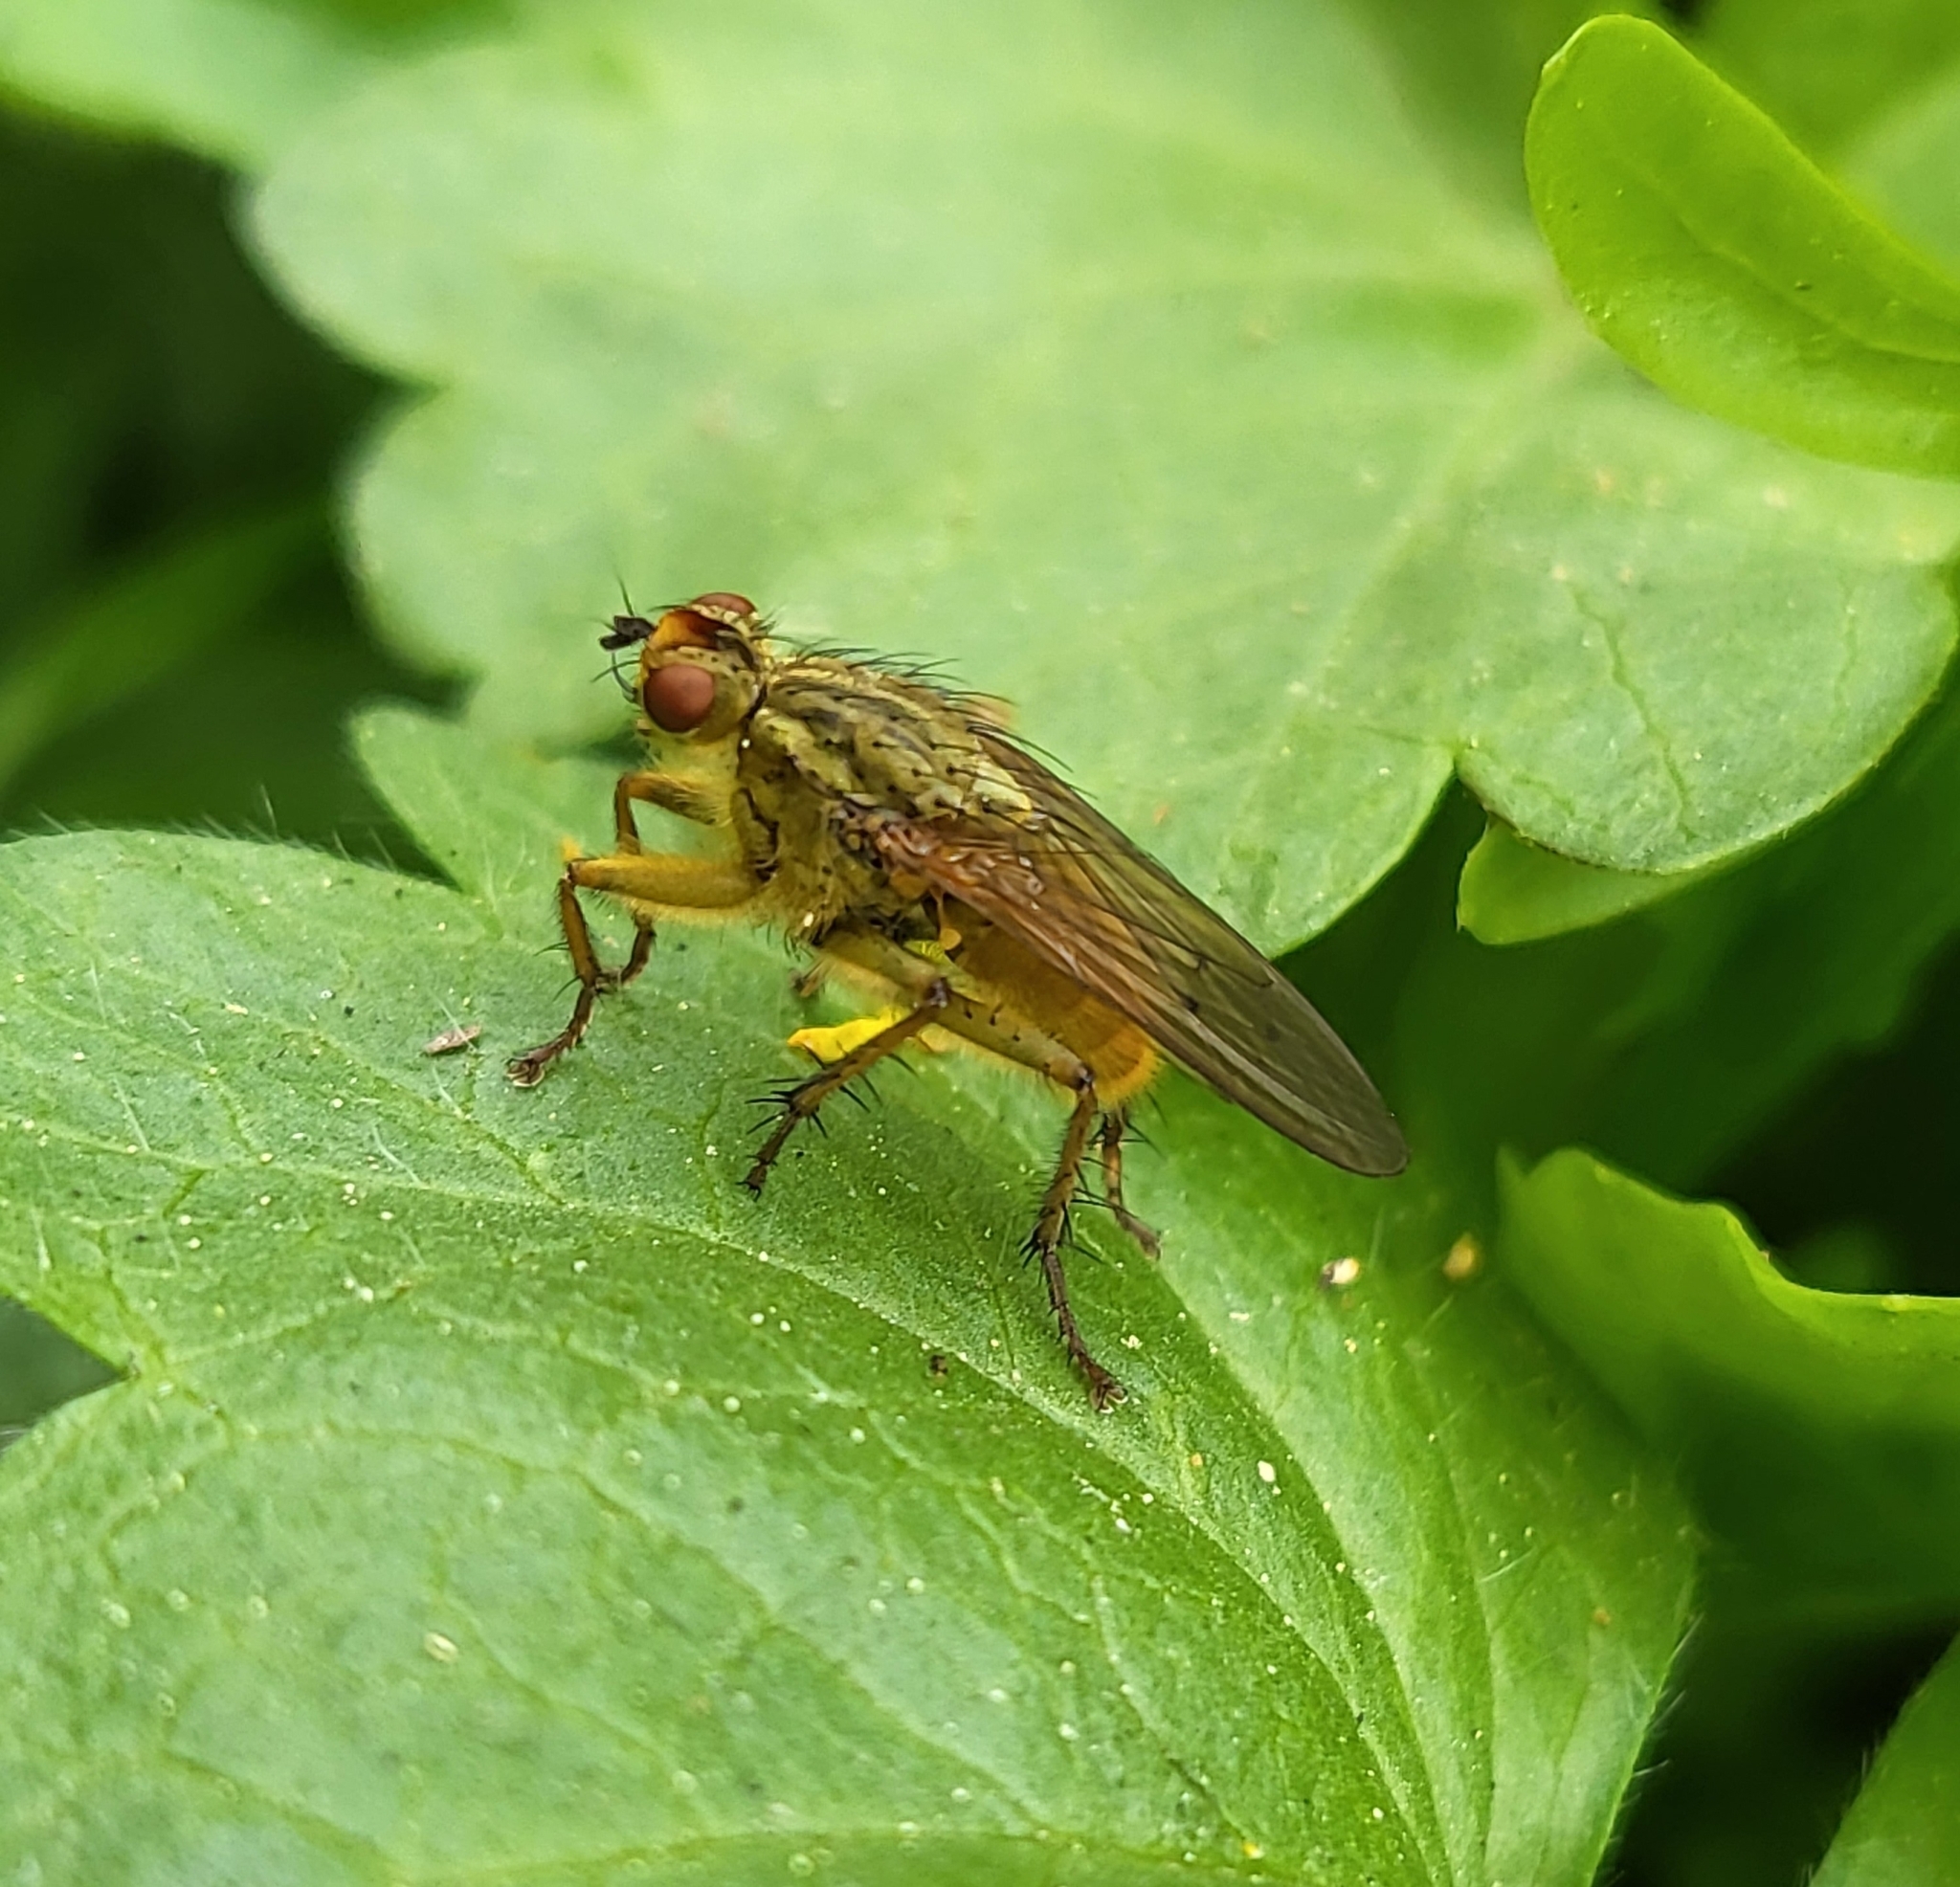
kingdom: Animalia
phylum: Arthropoda
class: Insecta
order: Diptera
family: Scathophagidae
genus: Scathophaga
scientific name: Scathophaga stercoraria
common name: Yellow dung fly
